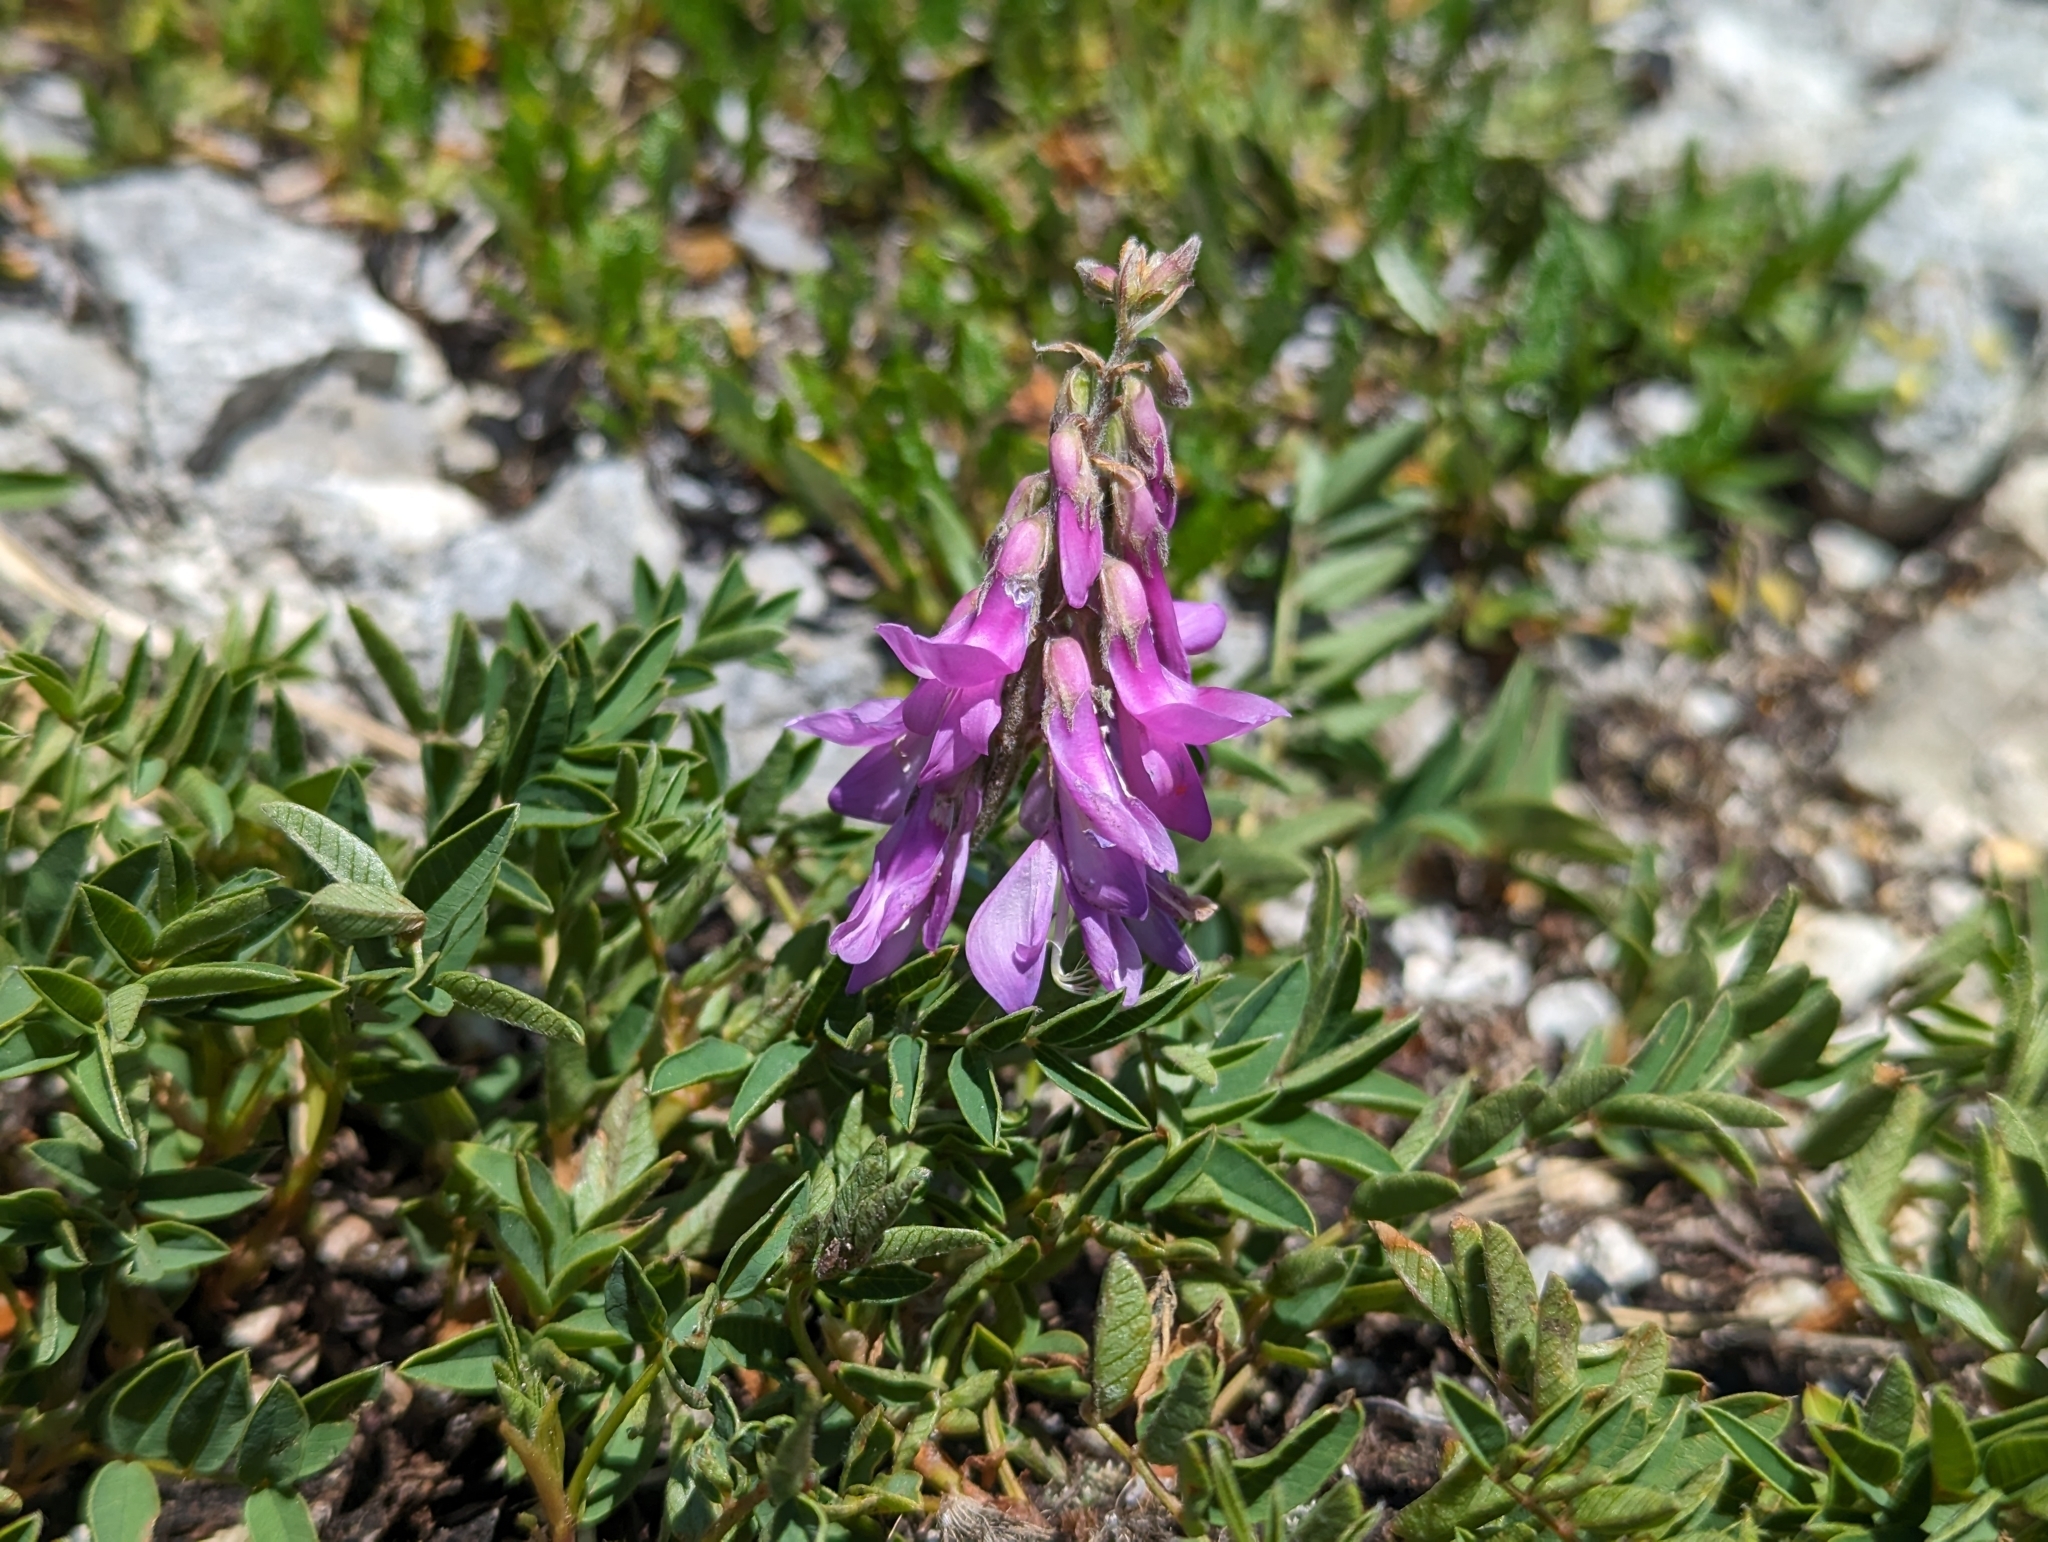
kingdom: Plantae
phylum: Tracheophyta
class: Magnoliopsida
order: Fabales
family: Fabaceae
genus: Hedysarum
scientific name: Hedysarum hedysaroides
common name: Alpine french-honeysuckle
